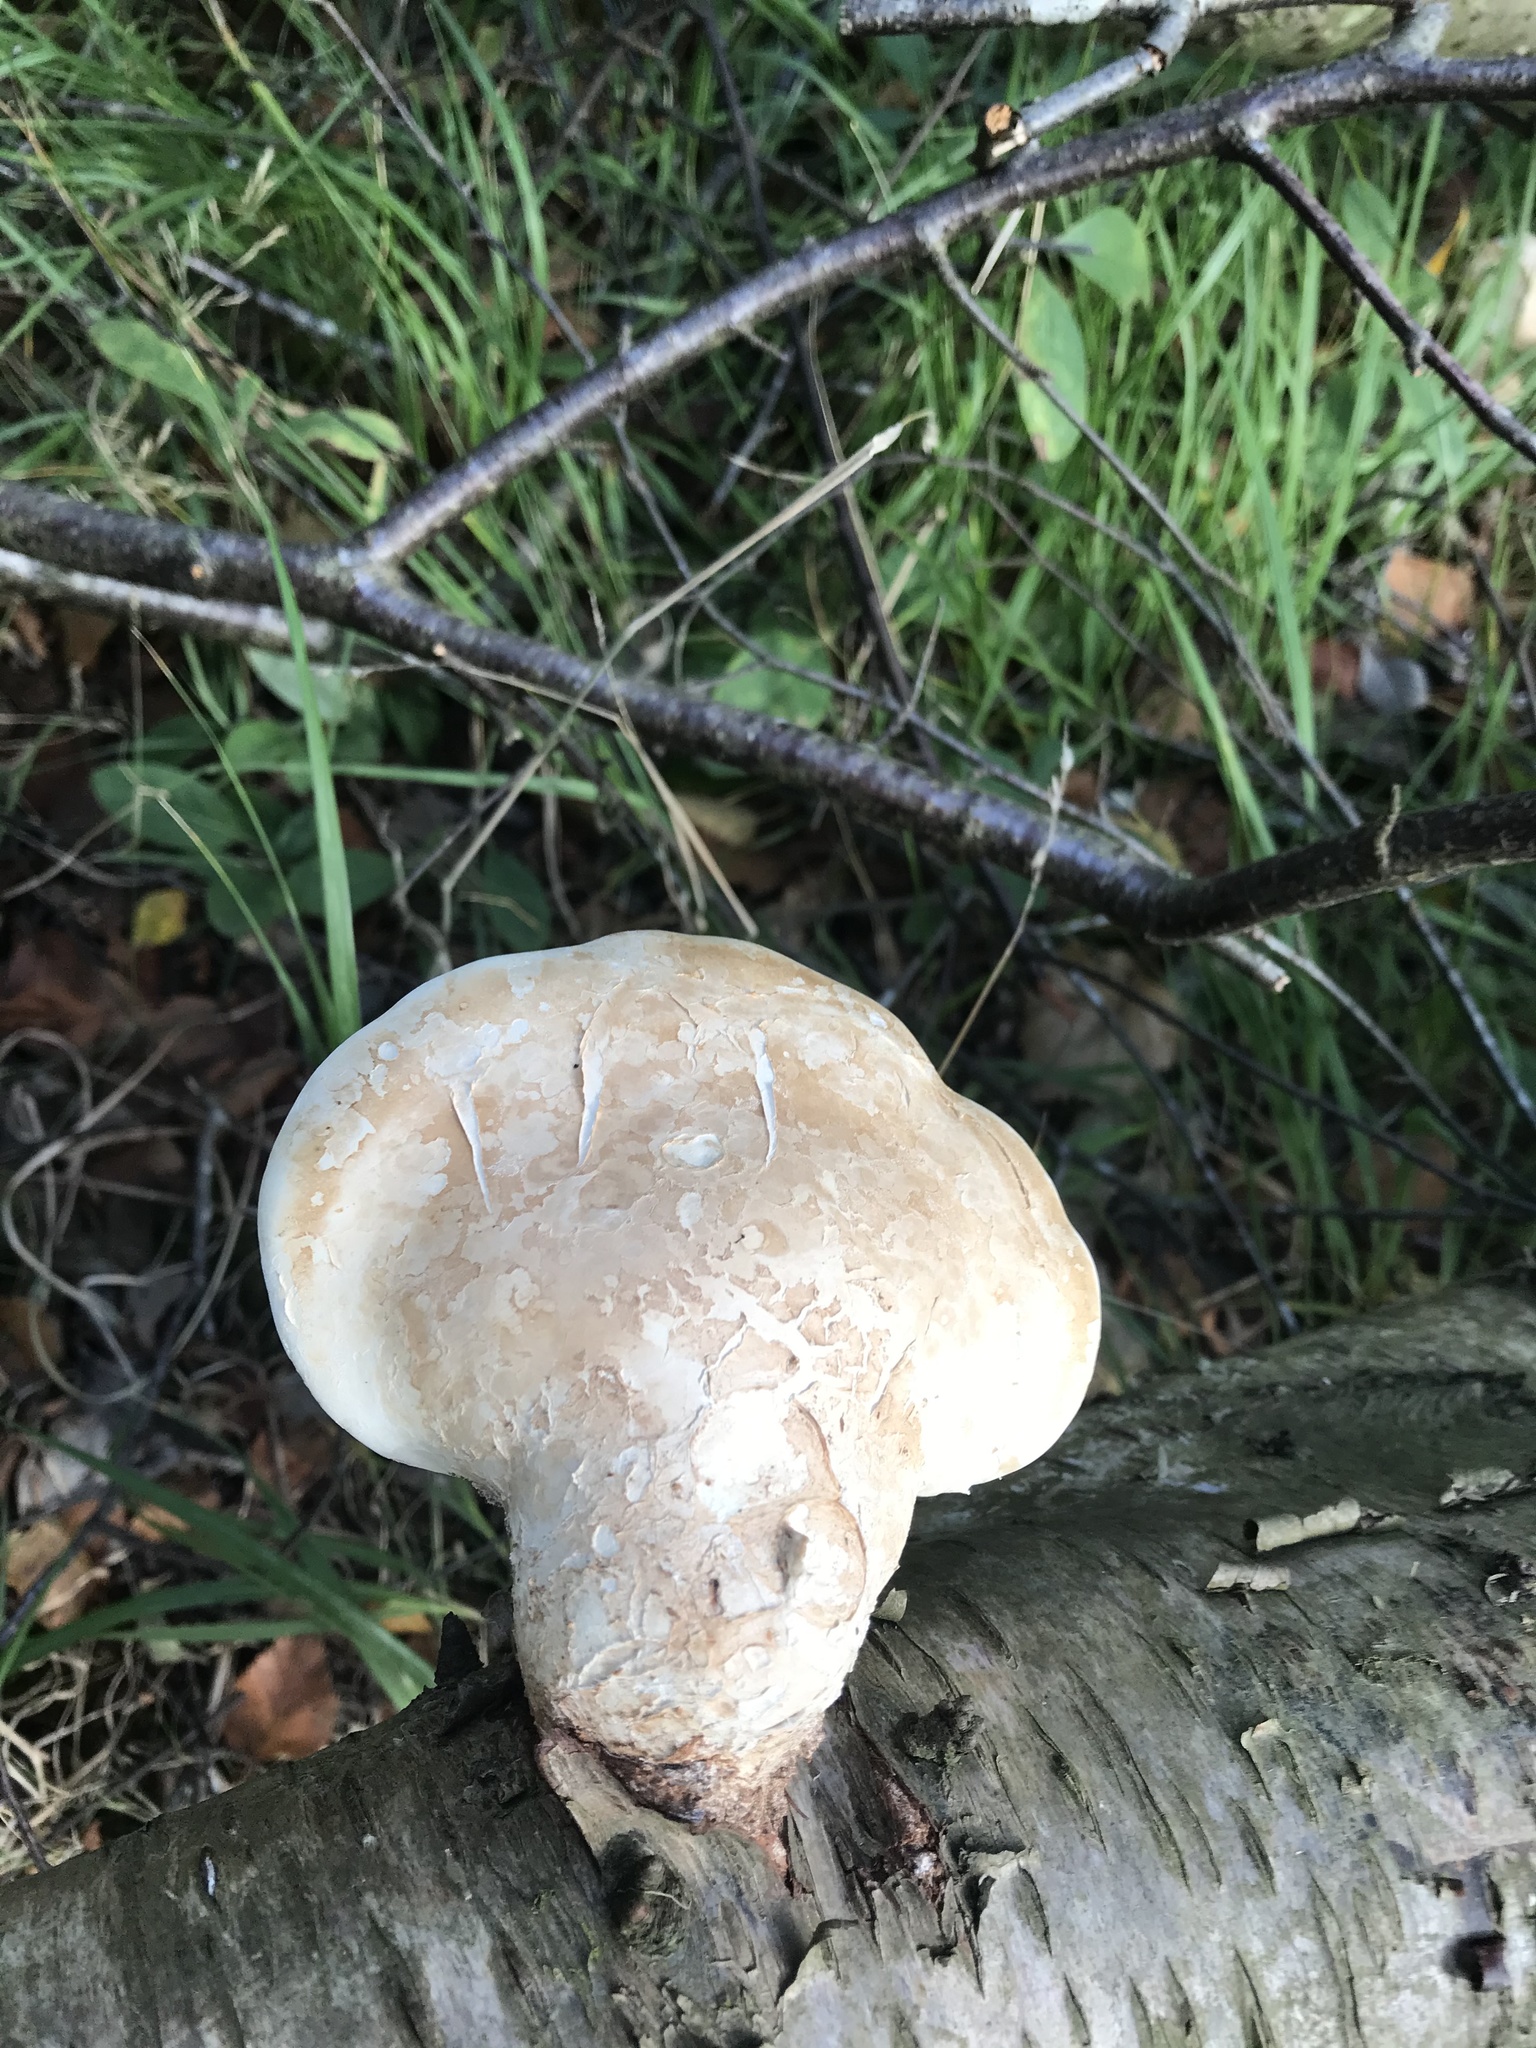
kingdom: Fungi
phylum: Basidiomycota
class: Agaricomycetes
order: Polyporales
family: Fomitopsidaceae
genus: Fomitopsis
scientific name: Fomitopsis betulina
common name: Birch polypore
